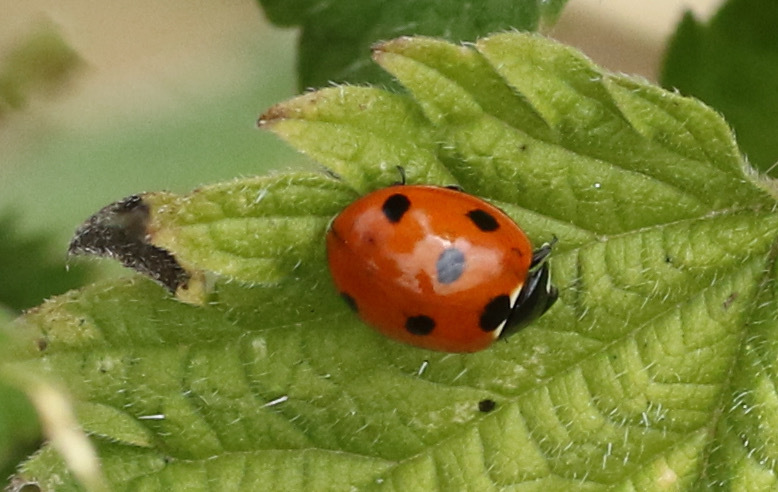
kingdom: Animalia
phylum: Arthropoda
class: Insecta
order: Coleoptera
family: Coccinellidae
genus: Coccinella
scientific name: Coccinella septempunctata
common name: Sevenspotted lady beetle
